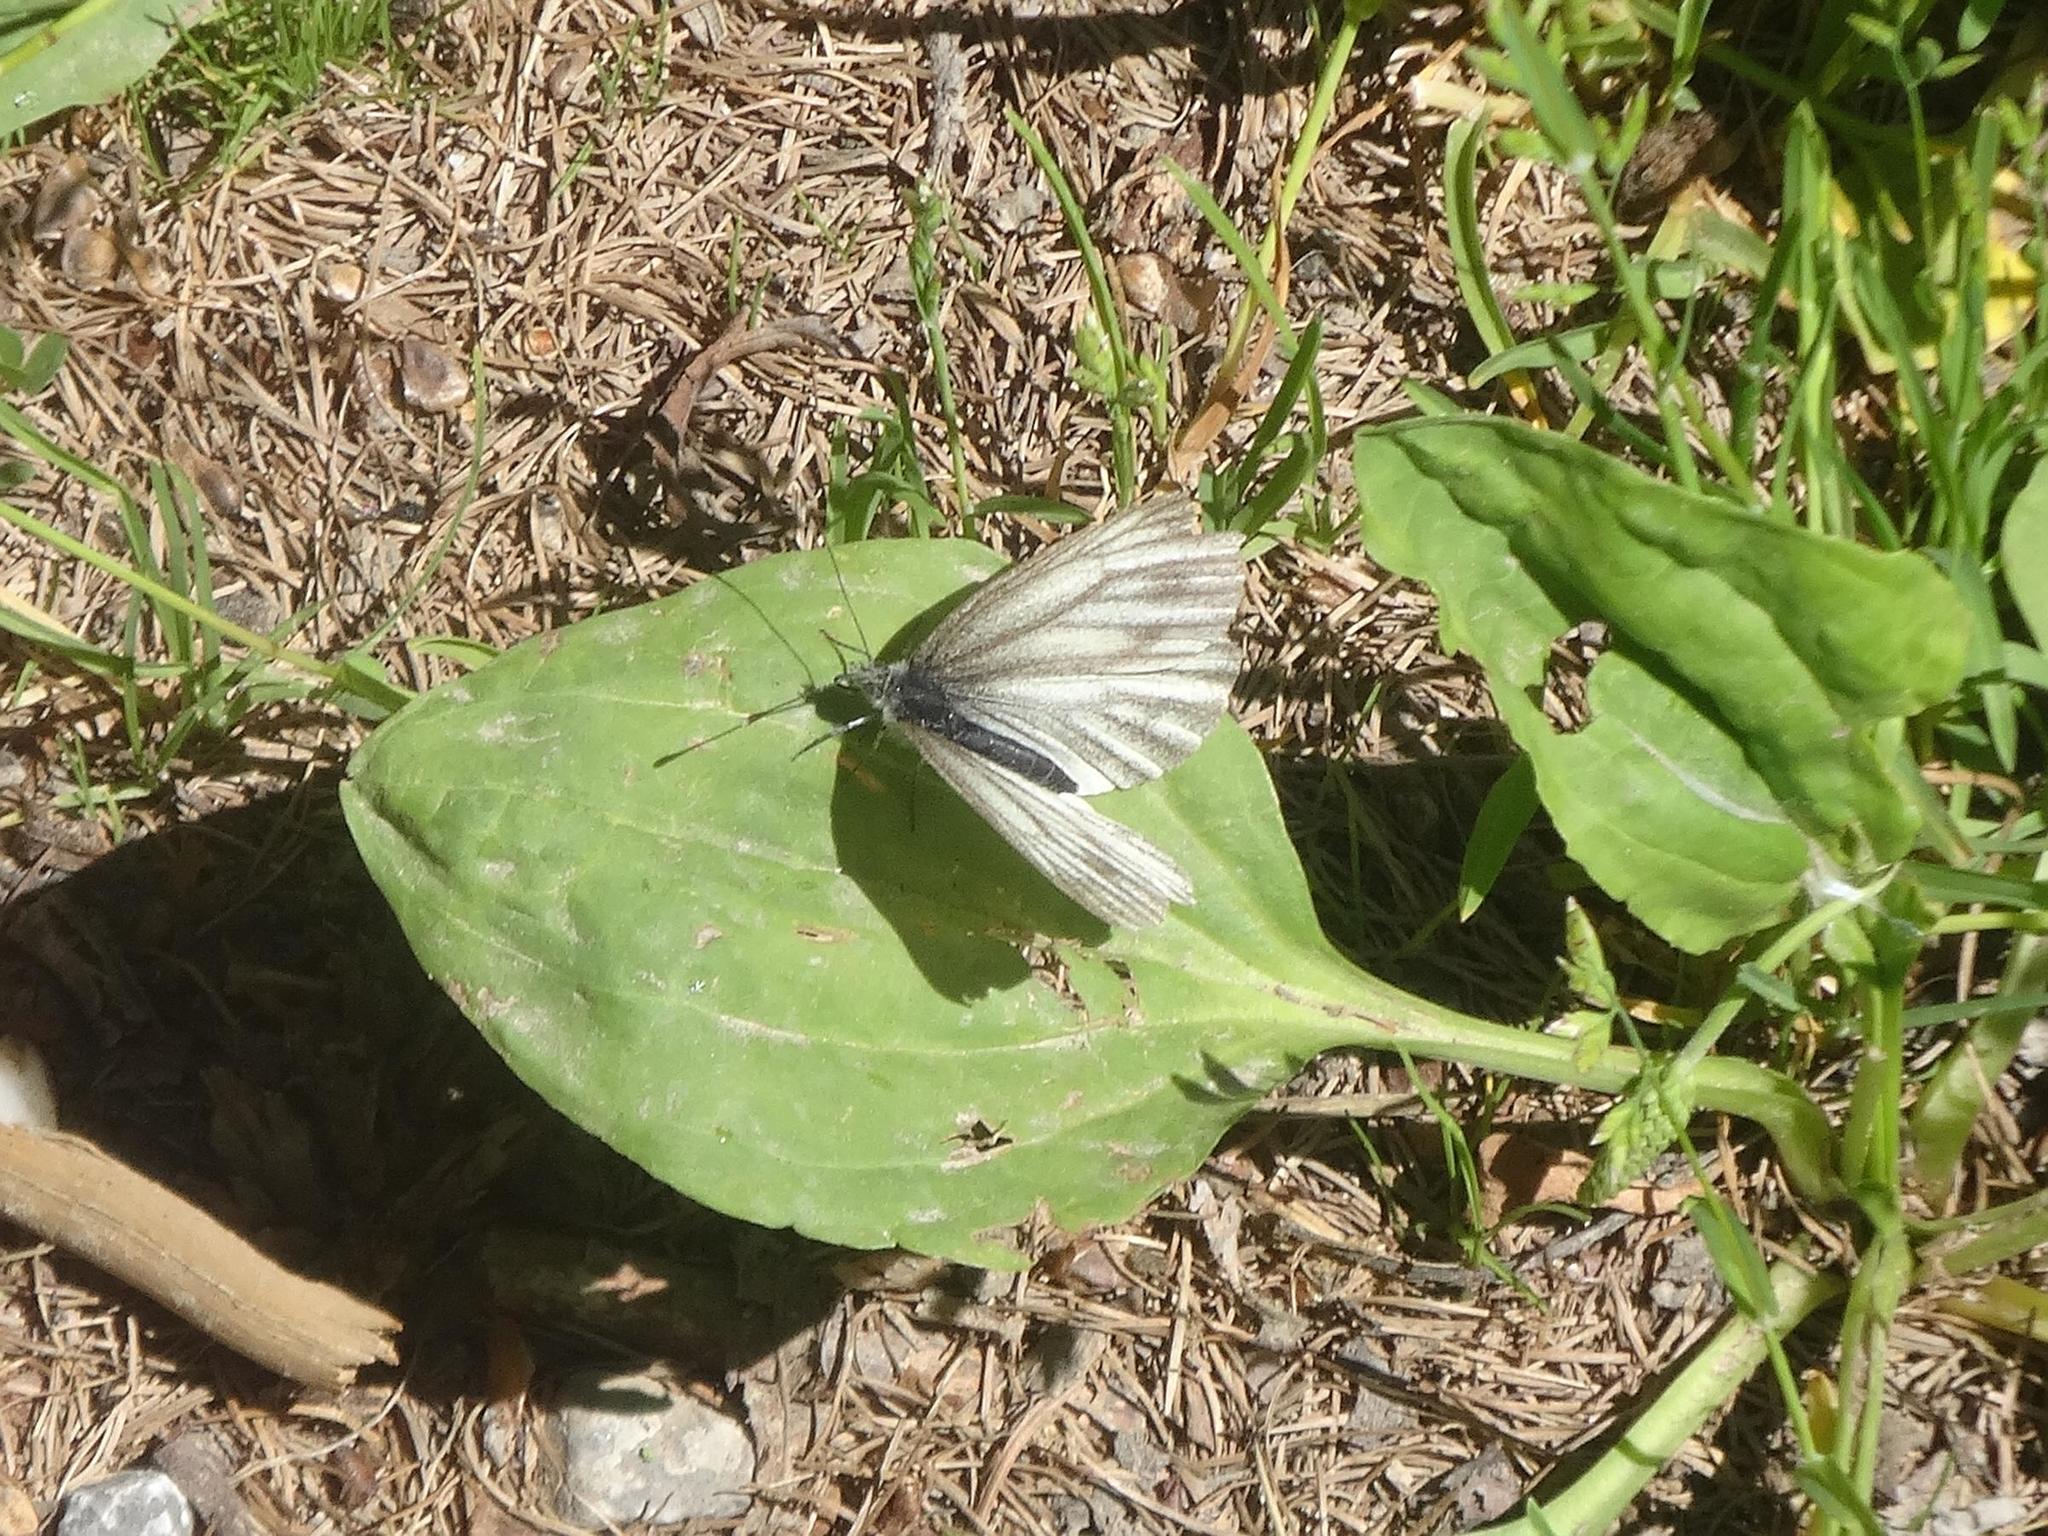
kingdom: Animalia
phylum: Arthropoda
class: Insecta
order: Lepidoptera
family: Pieridae
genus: Pieris
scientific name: Pieris bryoniae
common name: Mountain green-veined white
